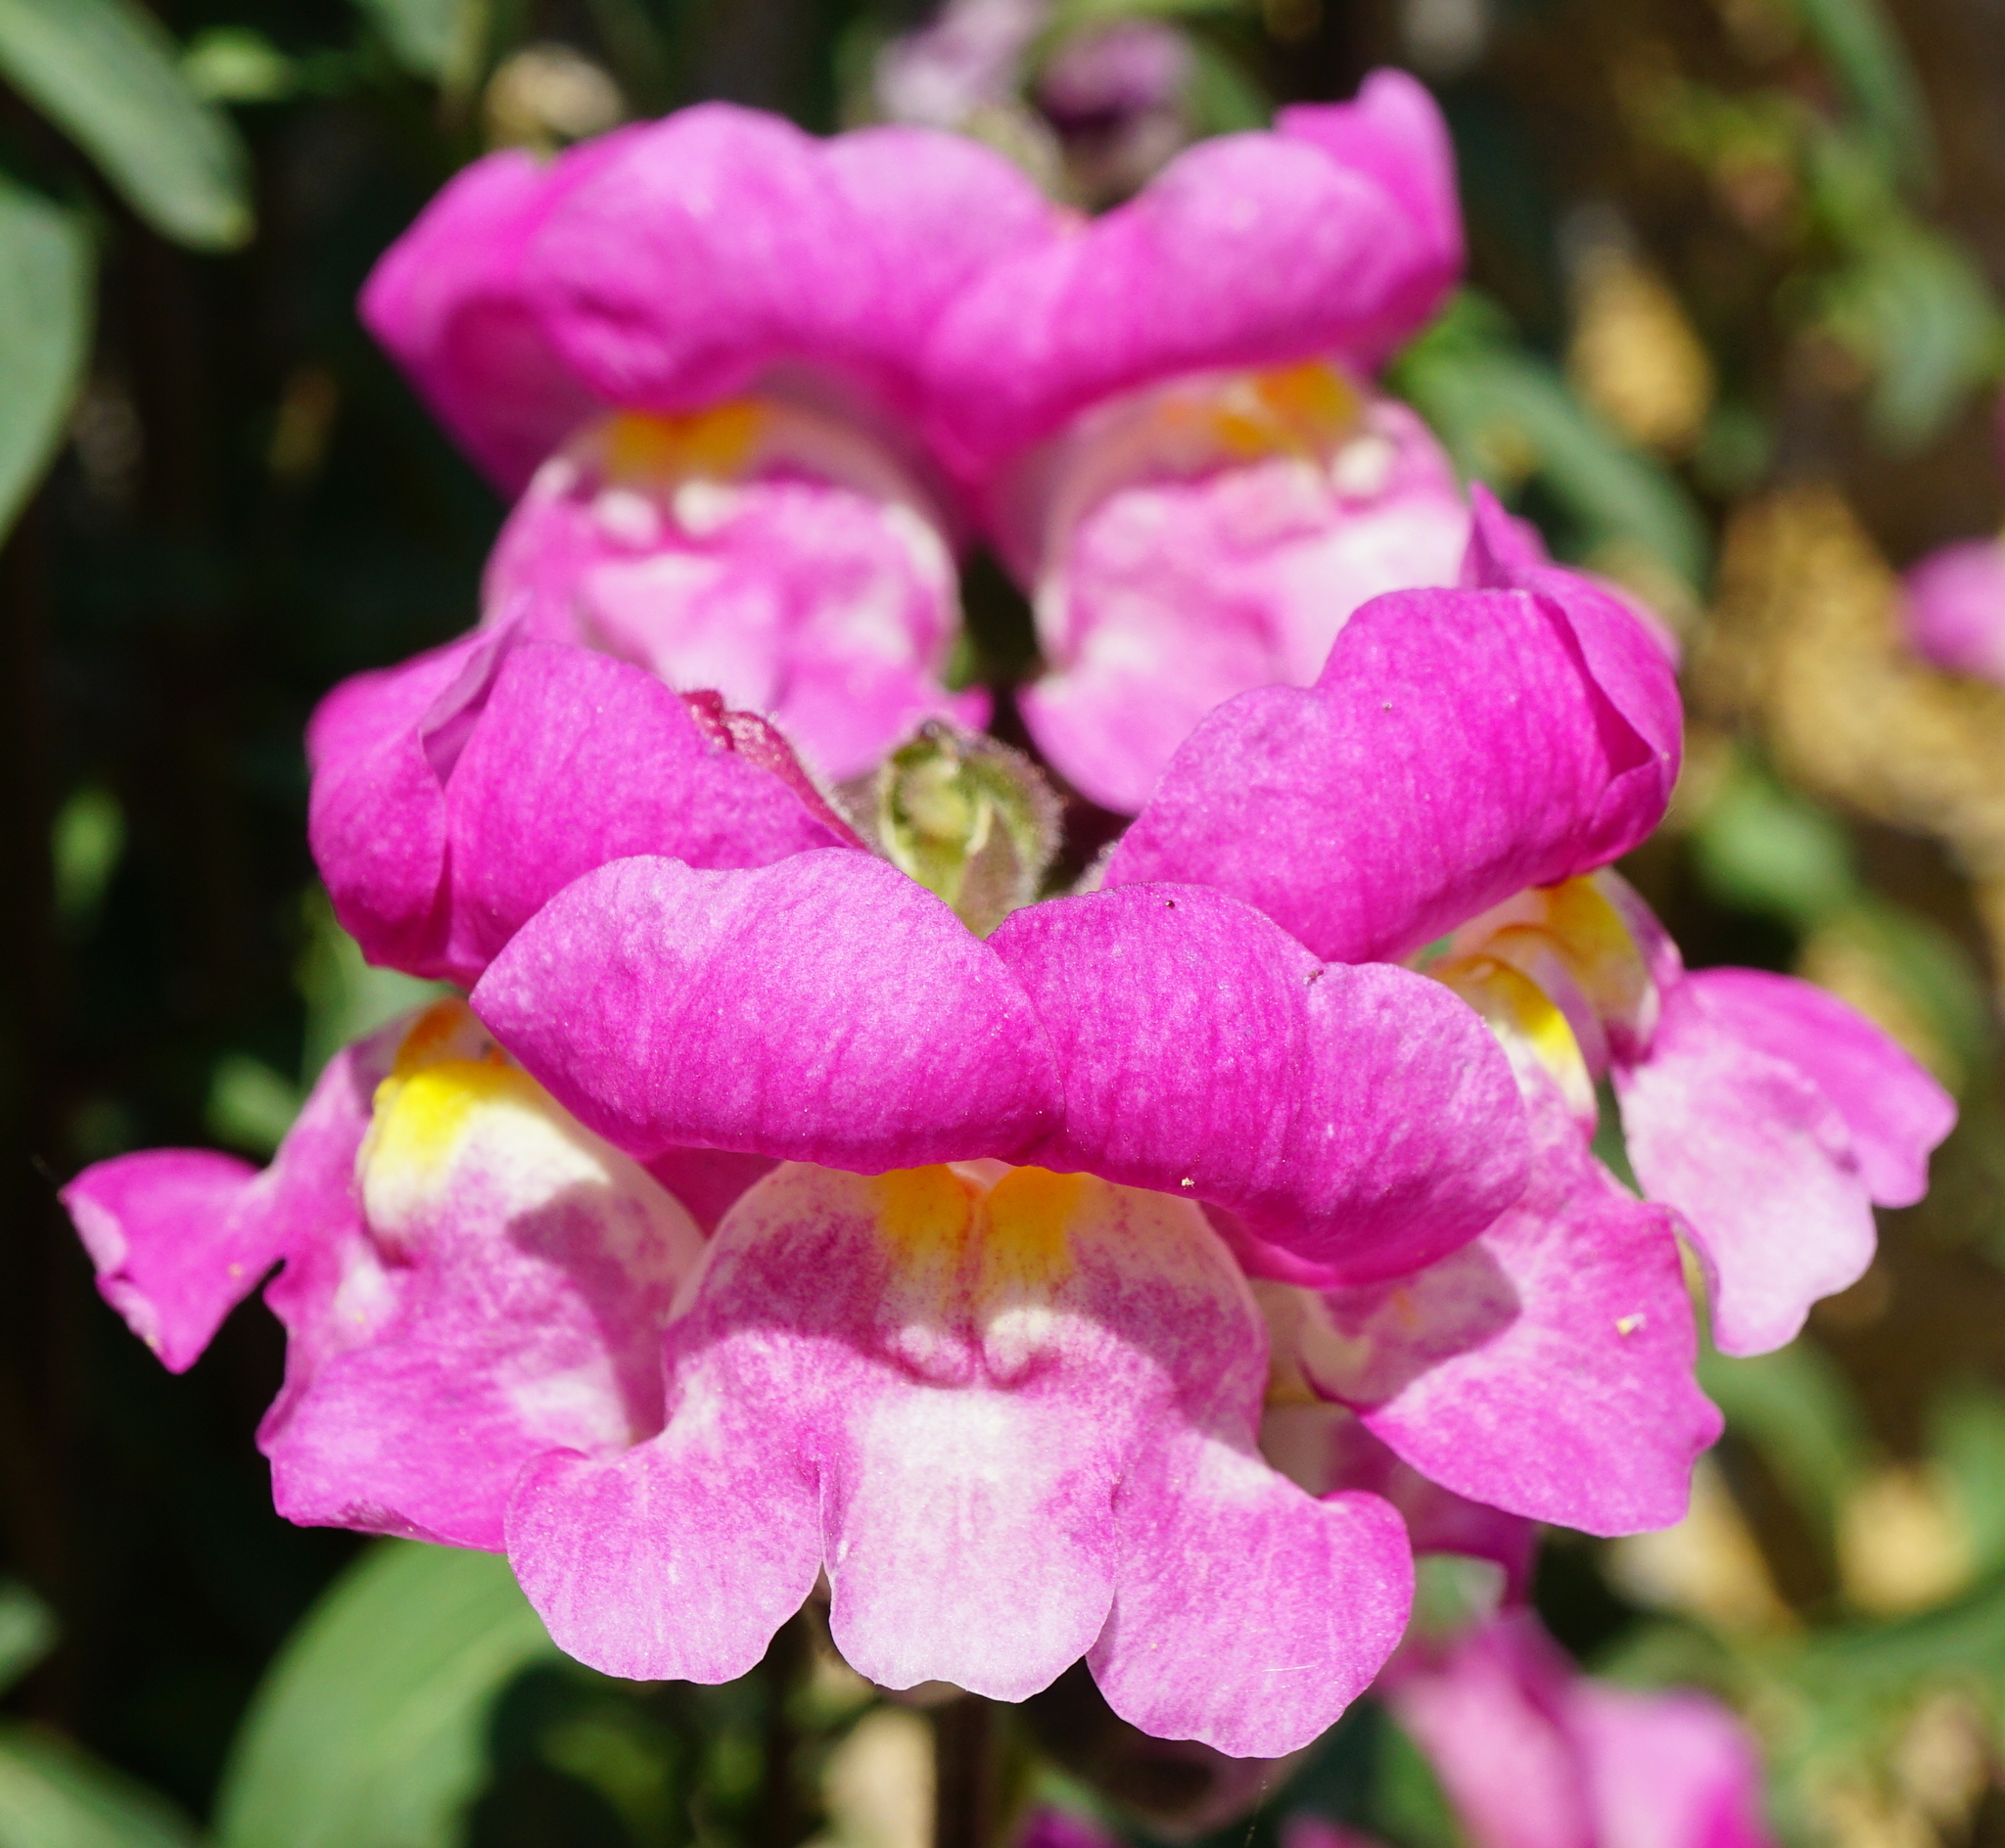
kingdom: Plantae
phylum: Tracheophyta
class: Magnoliopsida
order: Lamiales
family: Plantaginaceae
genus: Antirrhinum
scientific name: Antirrhinum majus
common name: Snapdragon
